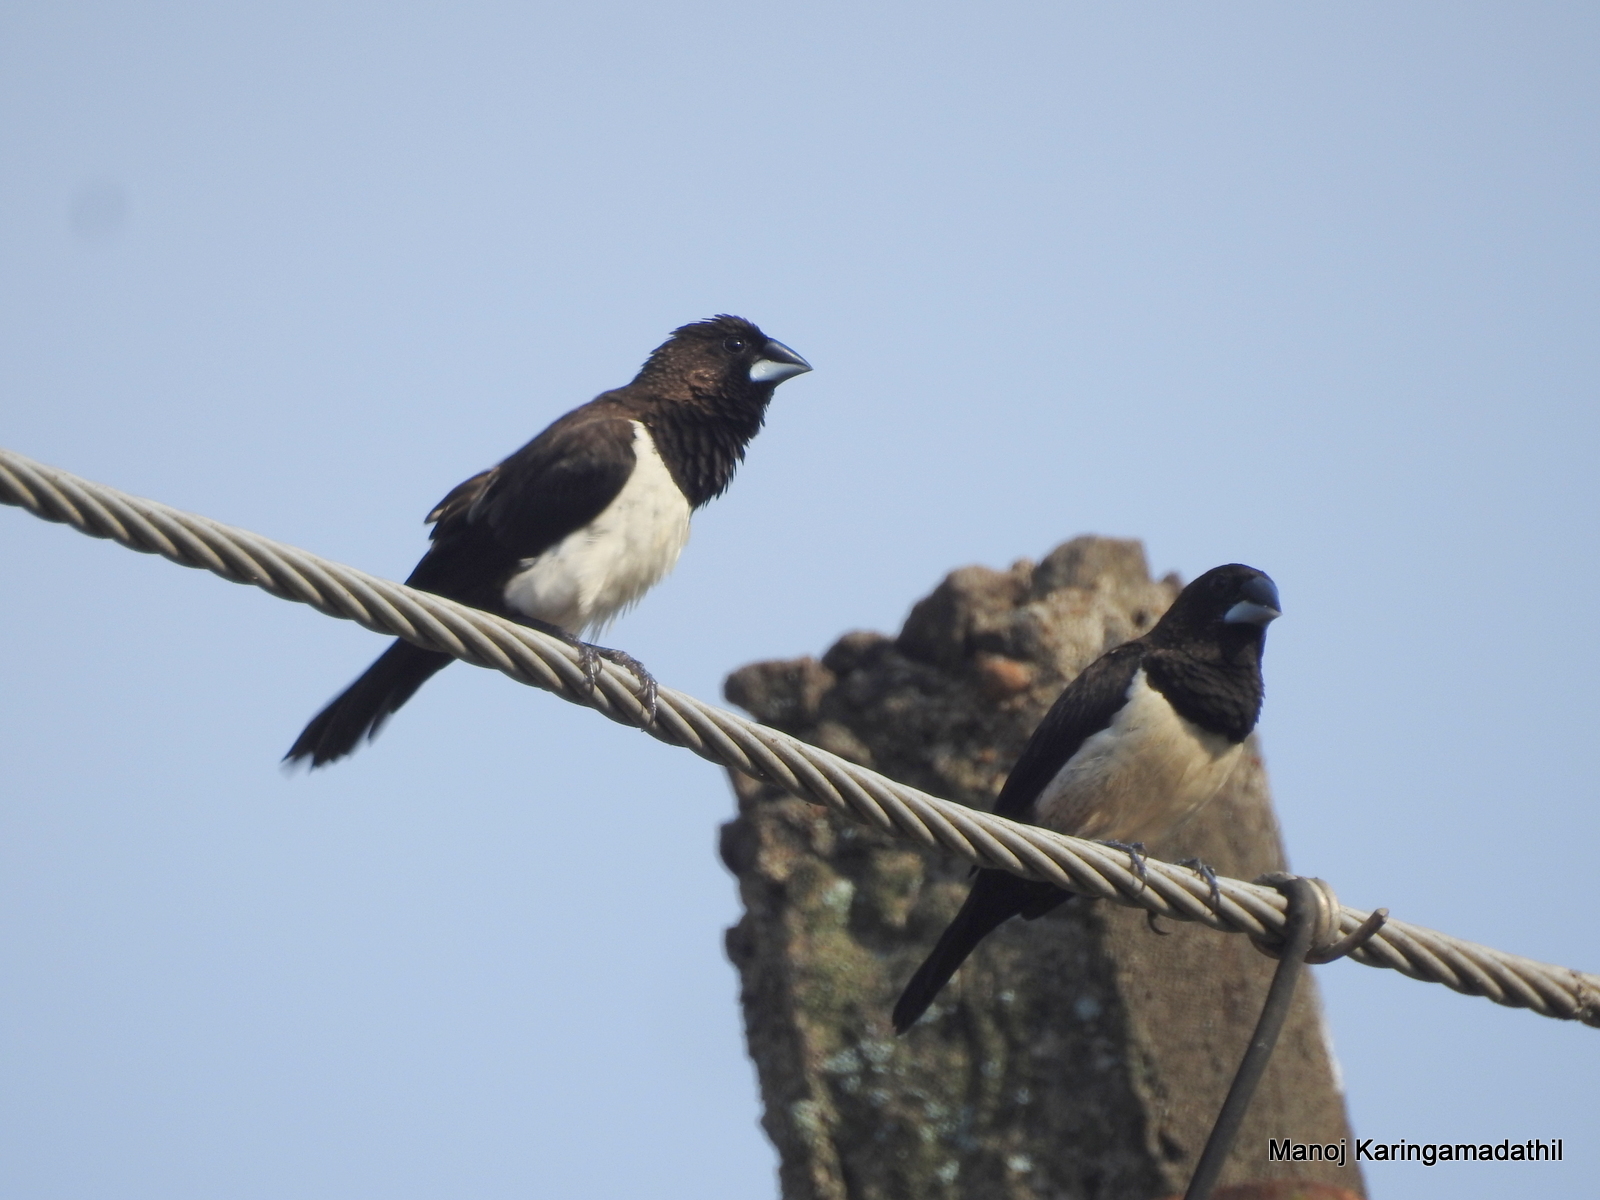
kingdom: Animalia
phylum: Chordata
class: Aves
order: Passeriformes
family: Estrildidae
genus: Lonchura
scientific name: Lonchura striata
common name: White-rumped munia
